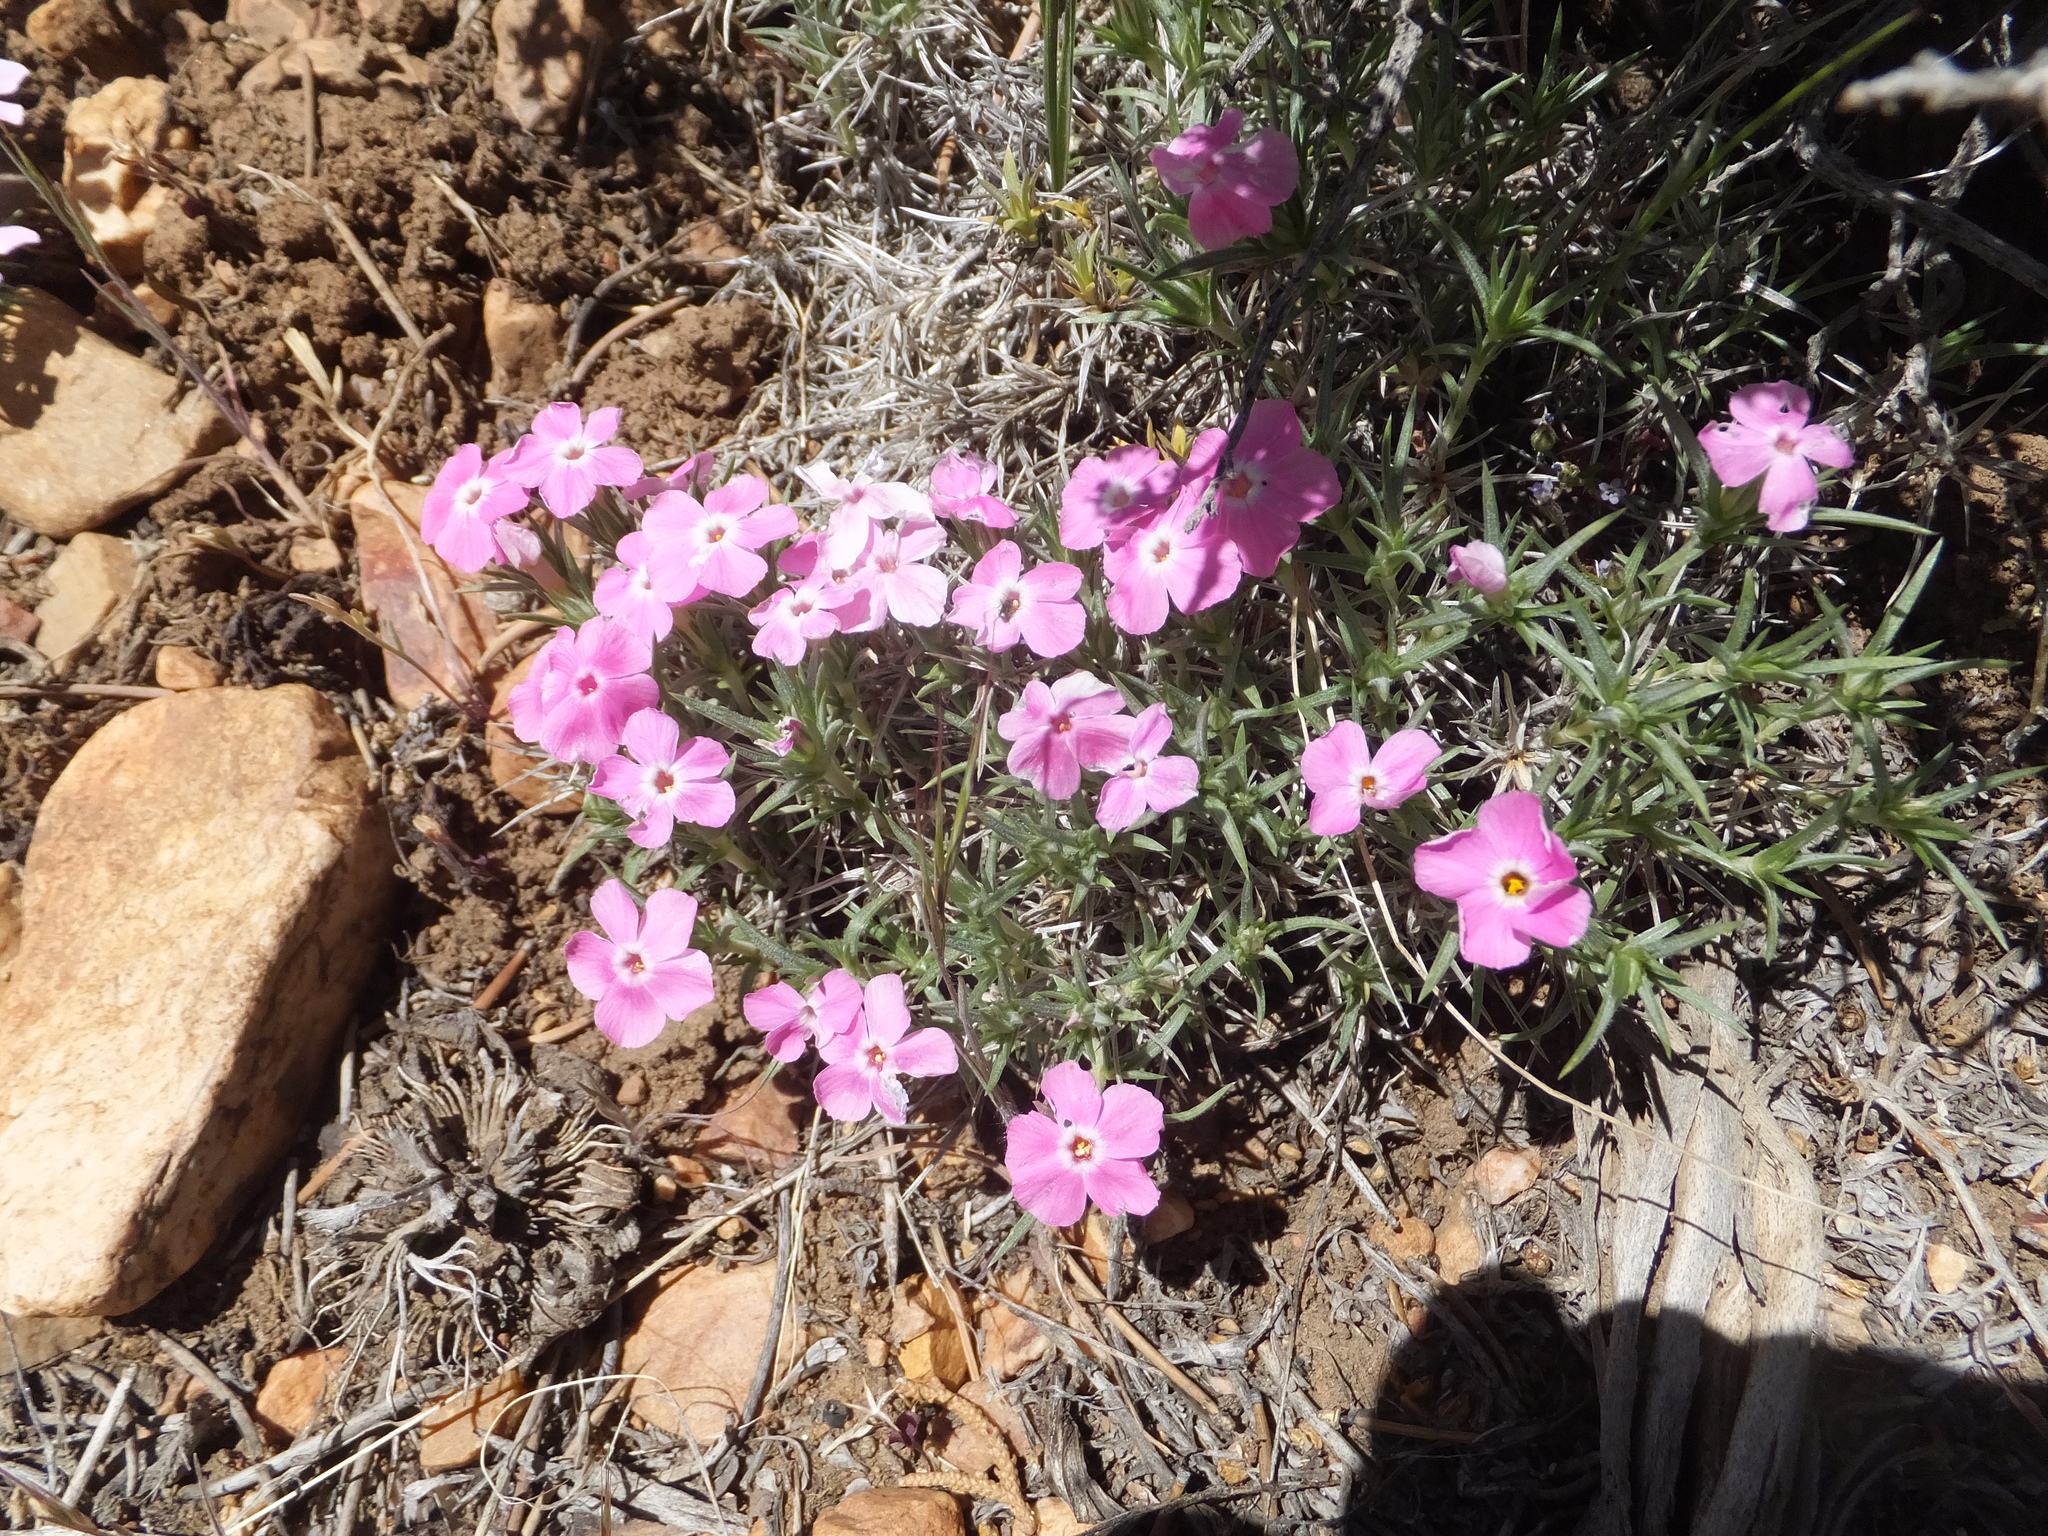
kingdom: Plantae
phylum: Tracheophyta
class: Magnoliopsida
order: Ericales
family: Polemoniaceae
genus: Phlox
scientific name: Phlox austromontana
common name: Desert phlox
